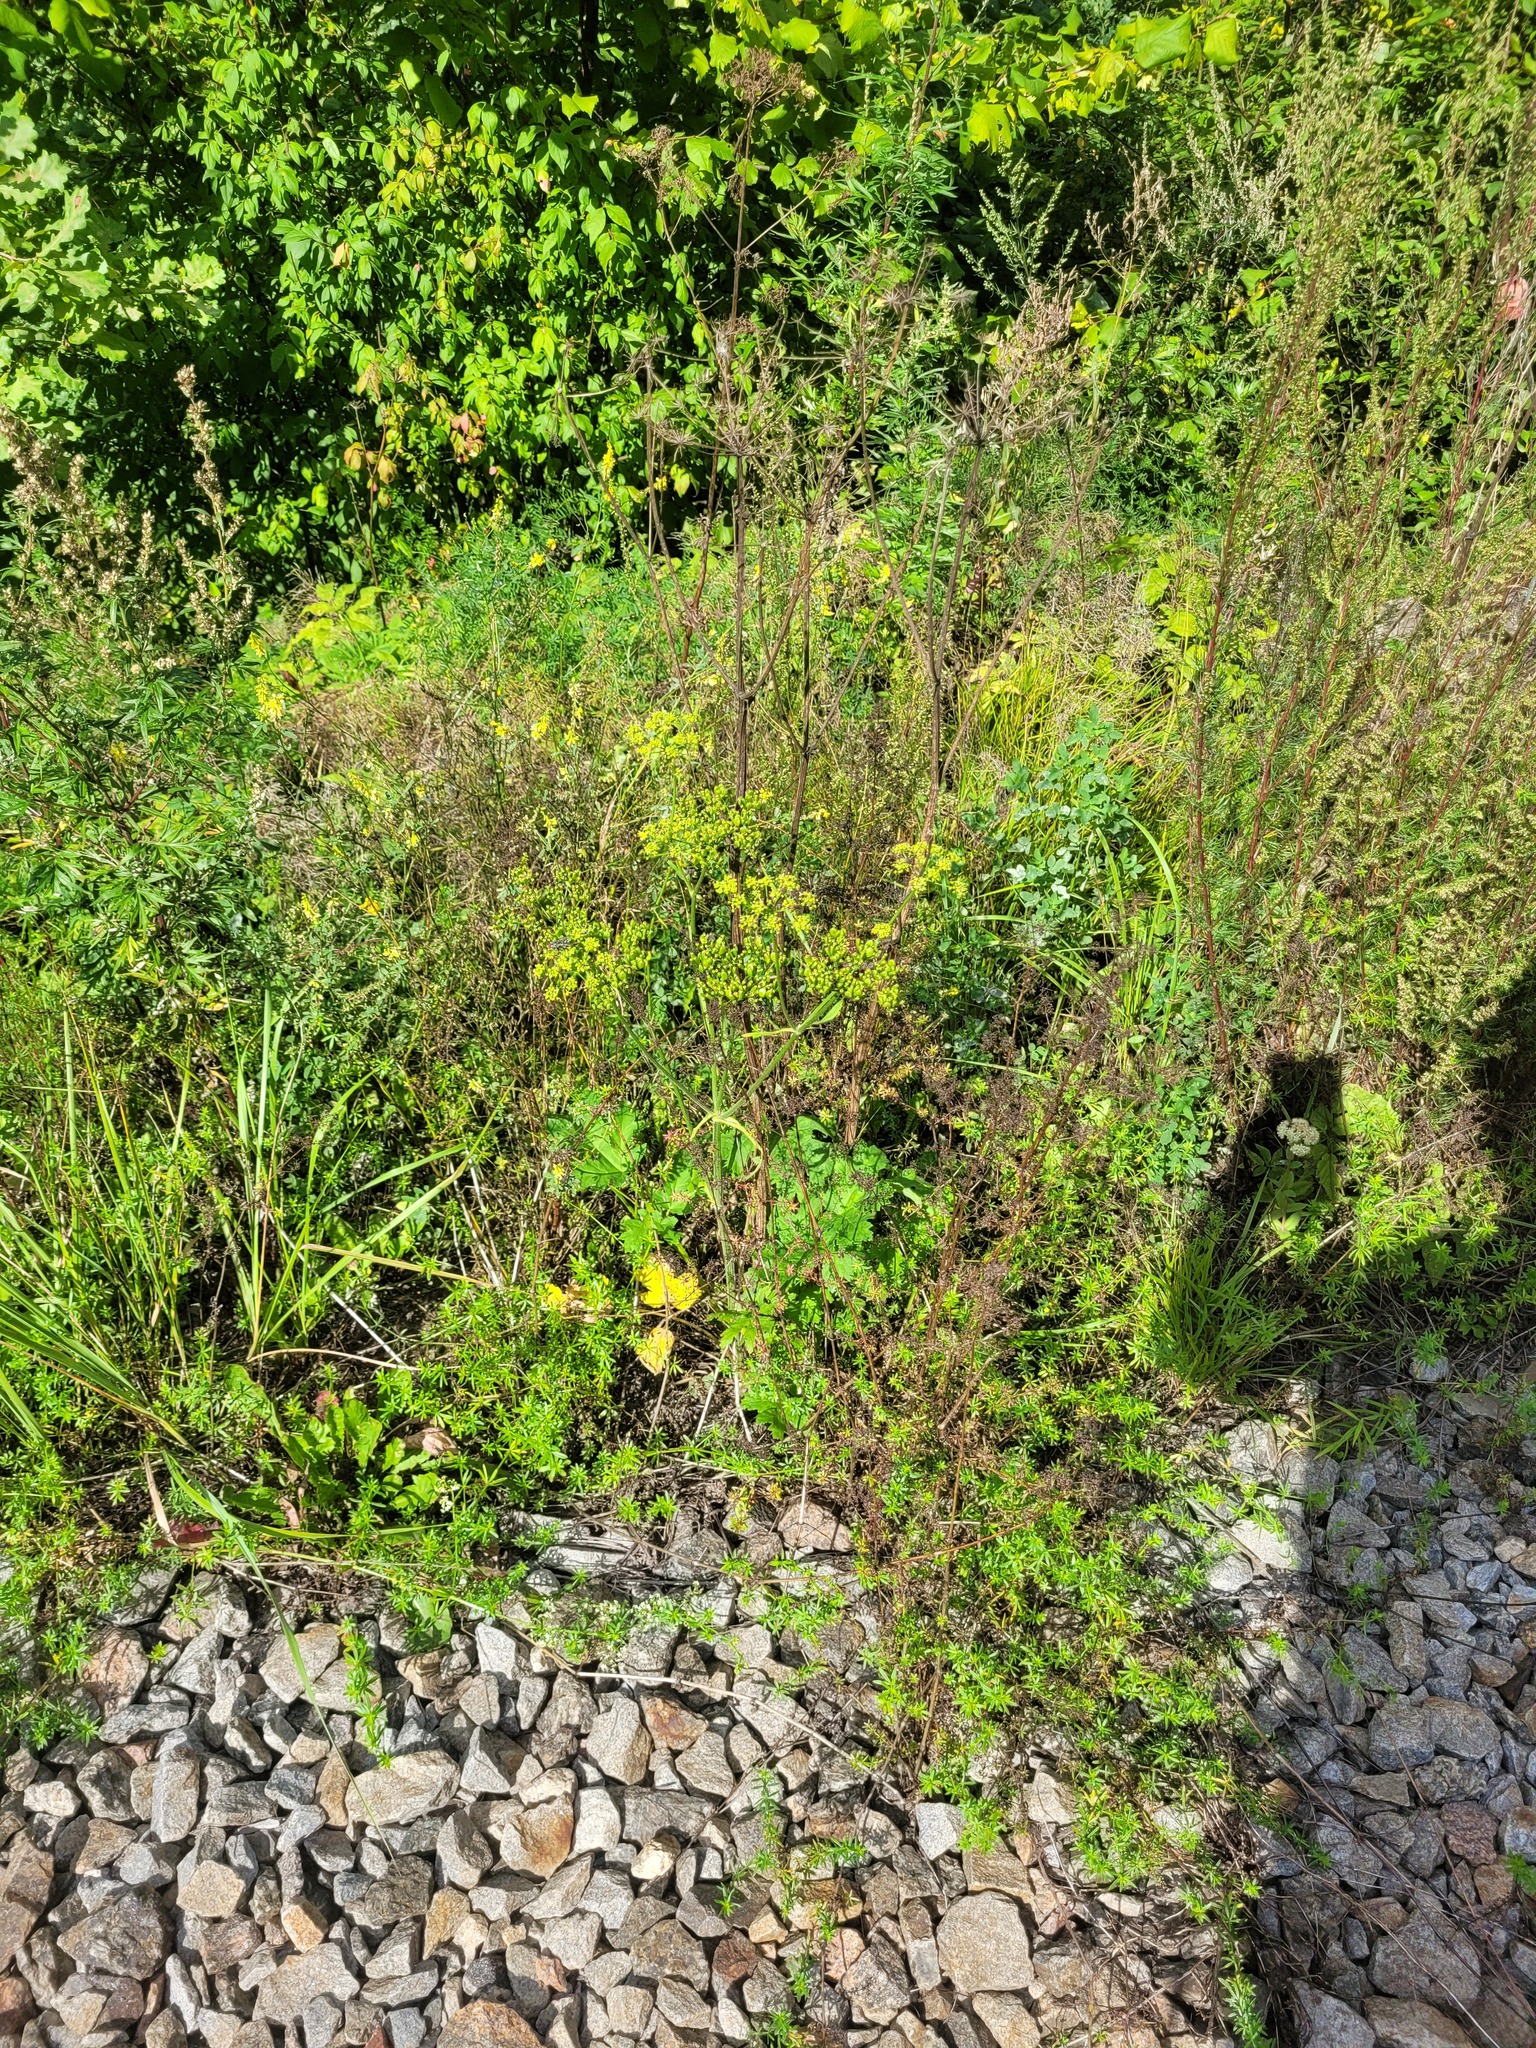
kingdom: Plantae
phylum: Tracheophyta
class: Magnoliopsida
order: Apiales
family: Apiaceae
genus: Heracleum
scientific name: Heracleum sphondylium
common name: Hogweed
